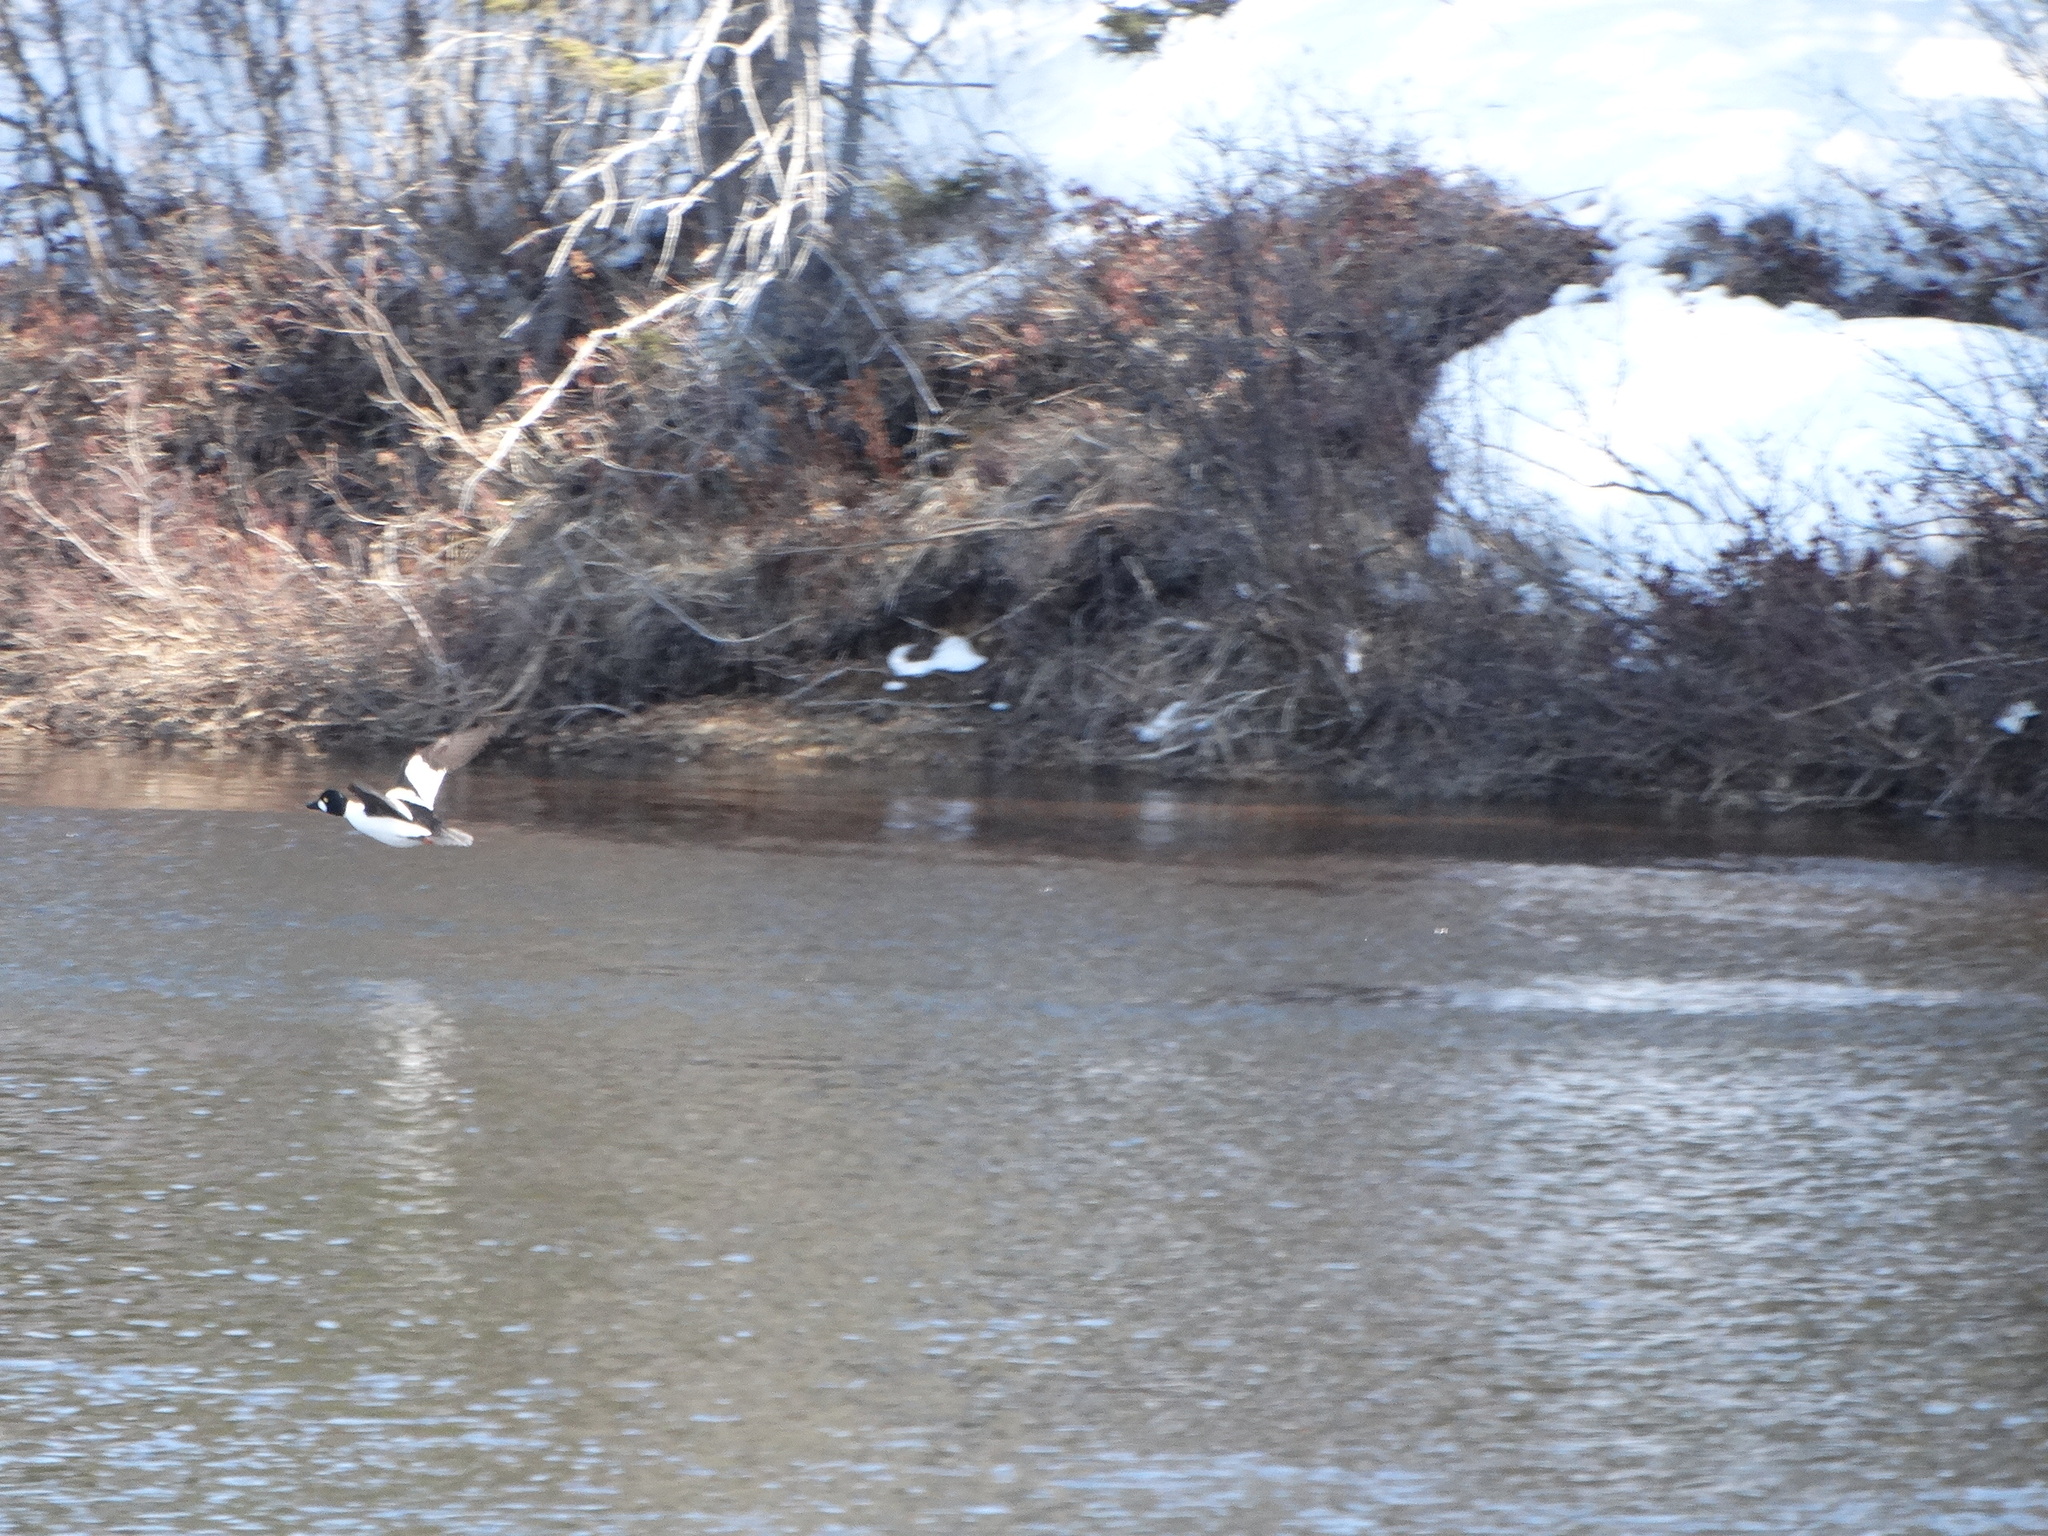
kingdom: Animalia
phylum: Chordata
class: Aves
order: Anseriformes
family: Anatidae
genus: Bucephala
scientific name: Bucephala clangula
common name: Common goldeneye
